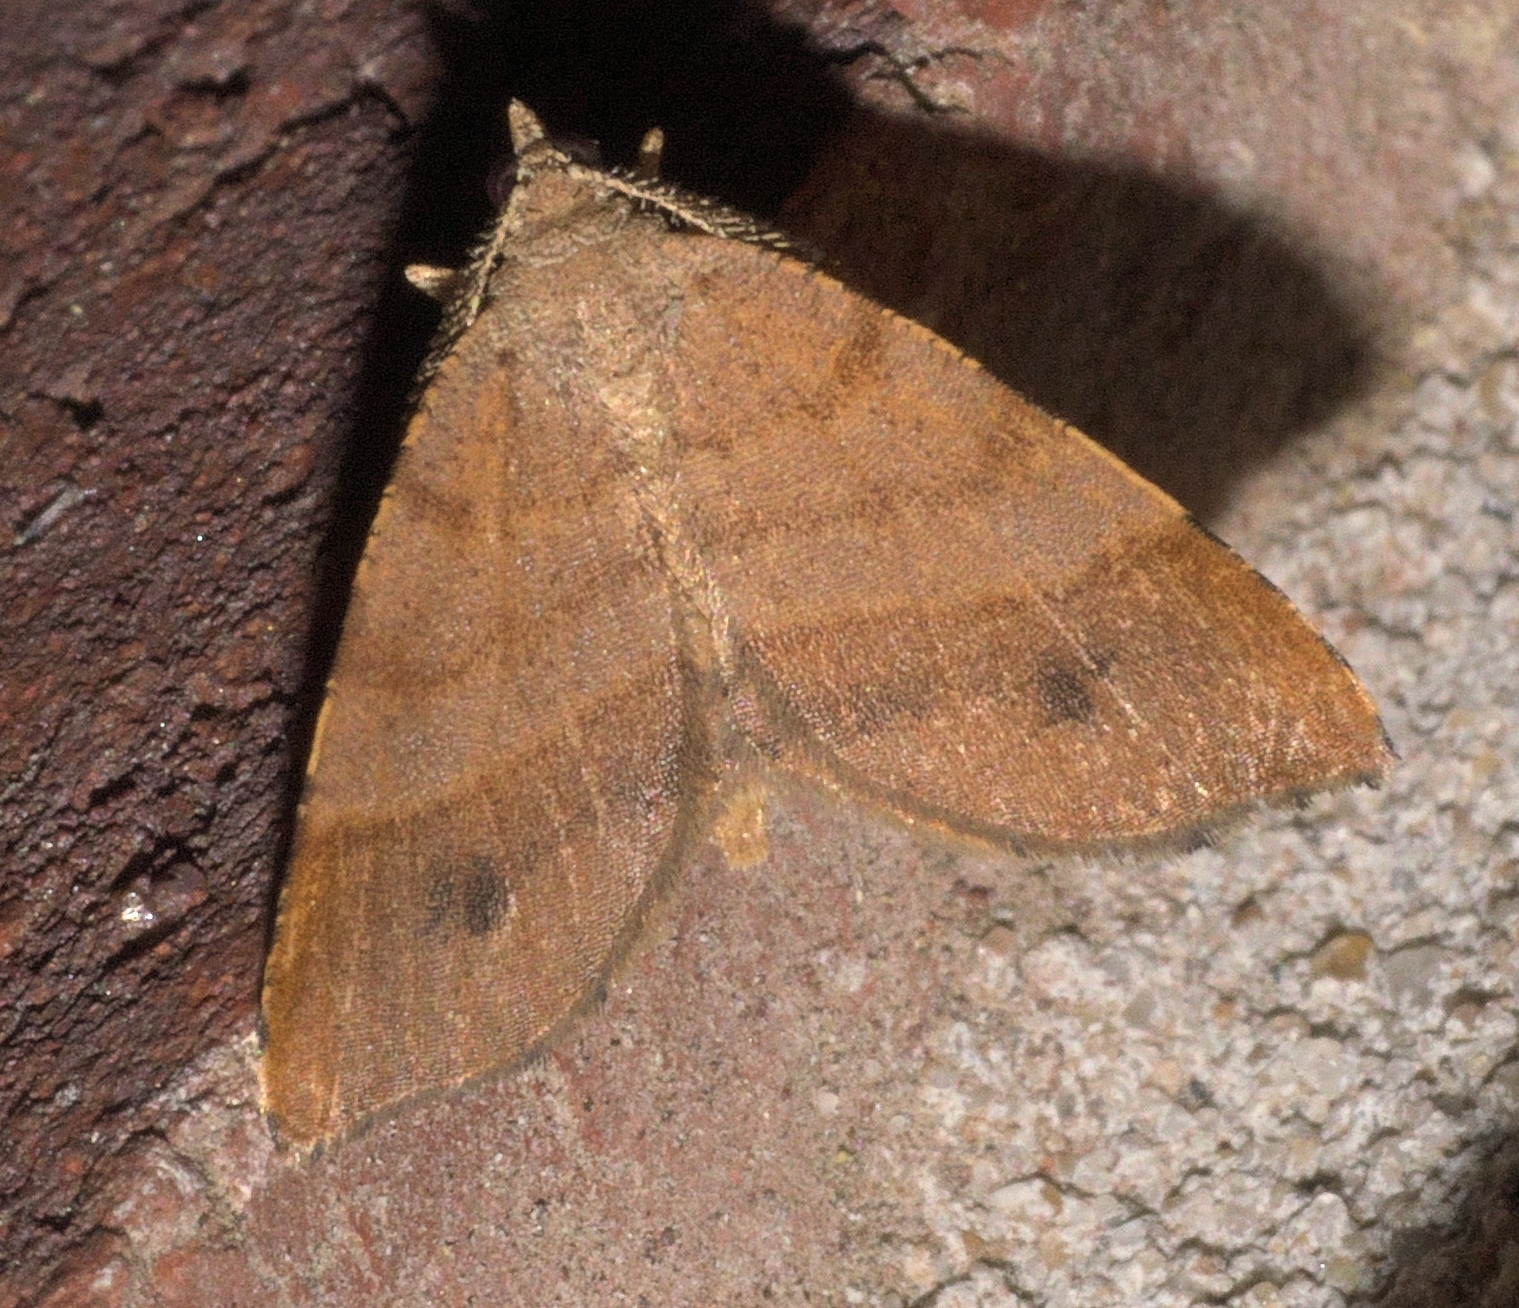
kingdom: Animalia
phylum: Arthropoda
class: Insecta
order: Lepidoptera
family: Geometridae
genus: Mellilla
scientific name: Mellilla xanthometata
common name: Orange wing moth
